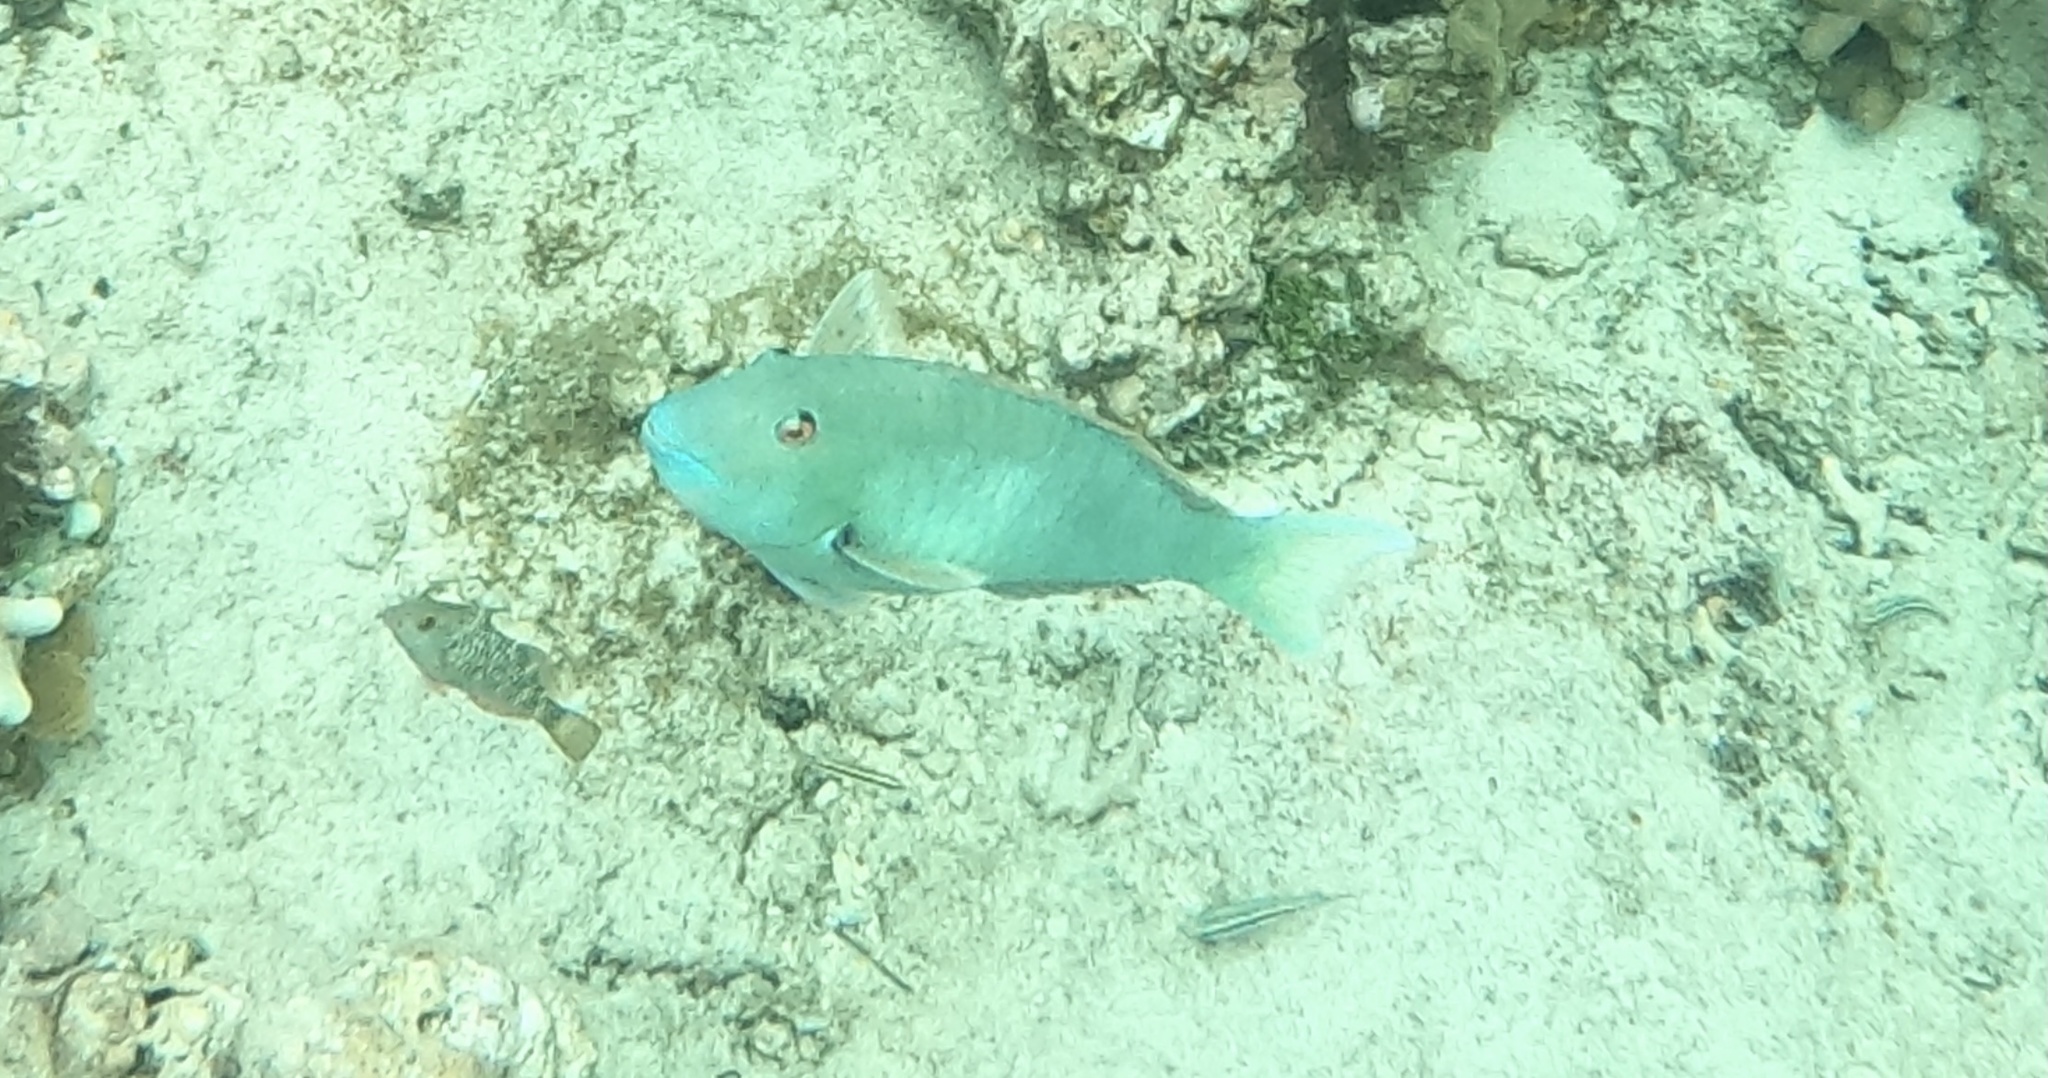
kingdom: Animalia
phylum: Chordata
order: Perciformes
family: Scaridae
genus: Sparisoma
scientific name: Sparisoma rubripinne
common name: Redfin parrotfish
